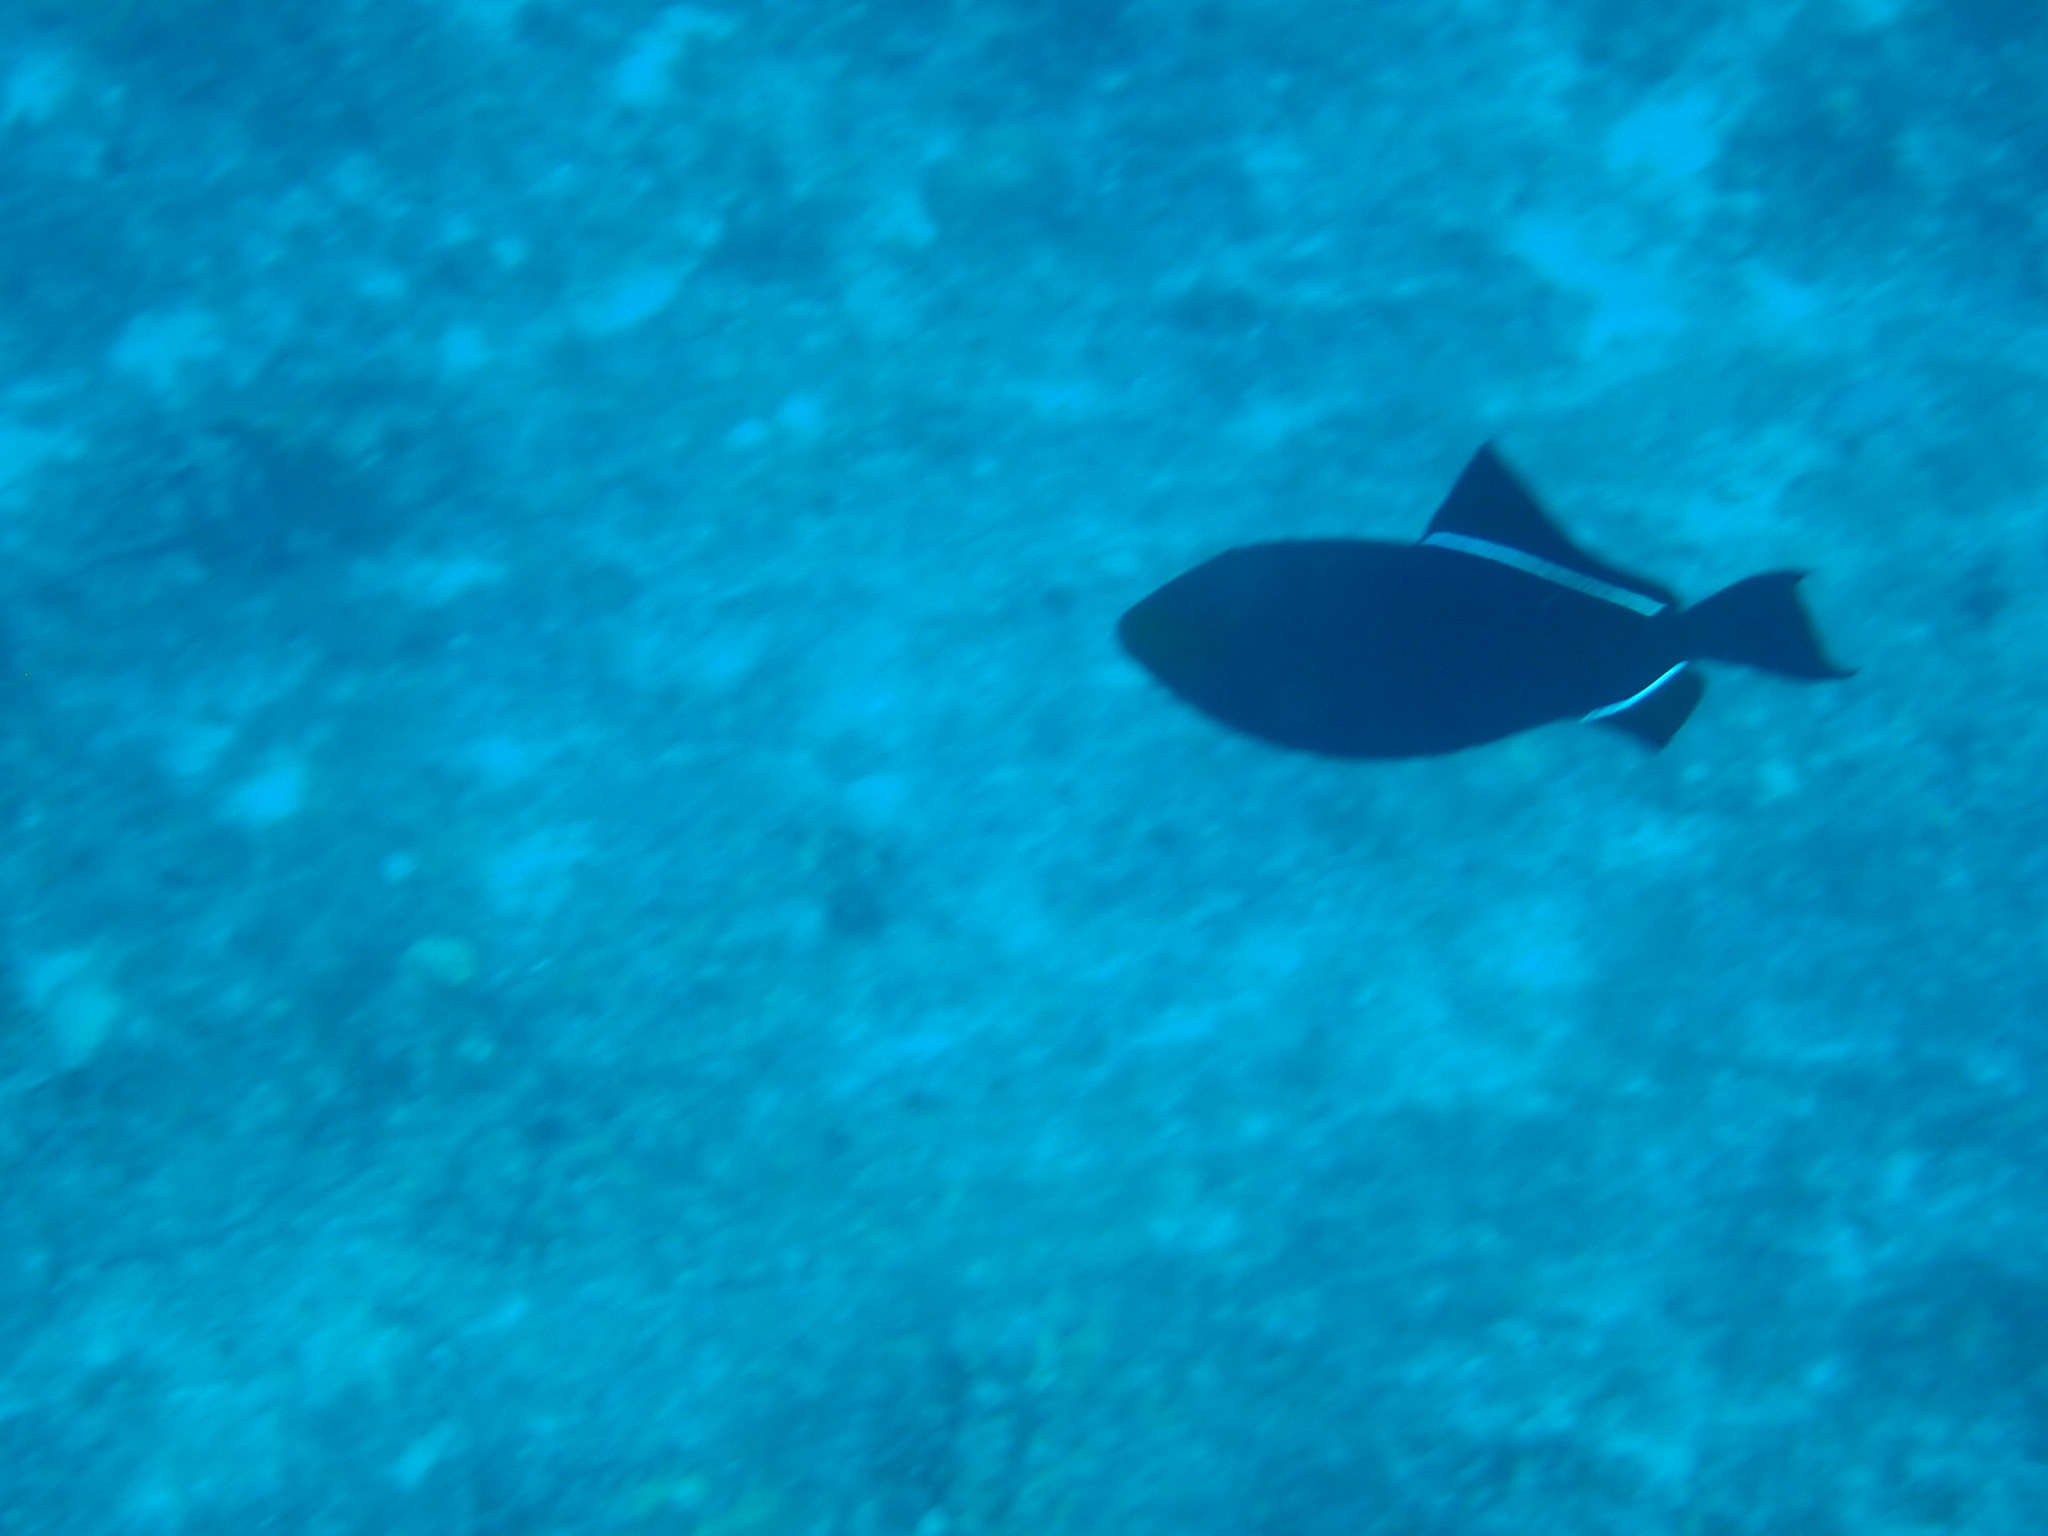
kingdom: Animalia
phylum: Chordata
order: Tetraodontiformes
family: Balistidae
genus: Melichthys
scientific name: Melichthys niger
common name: Black durgon
